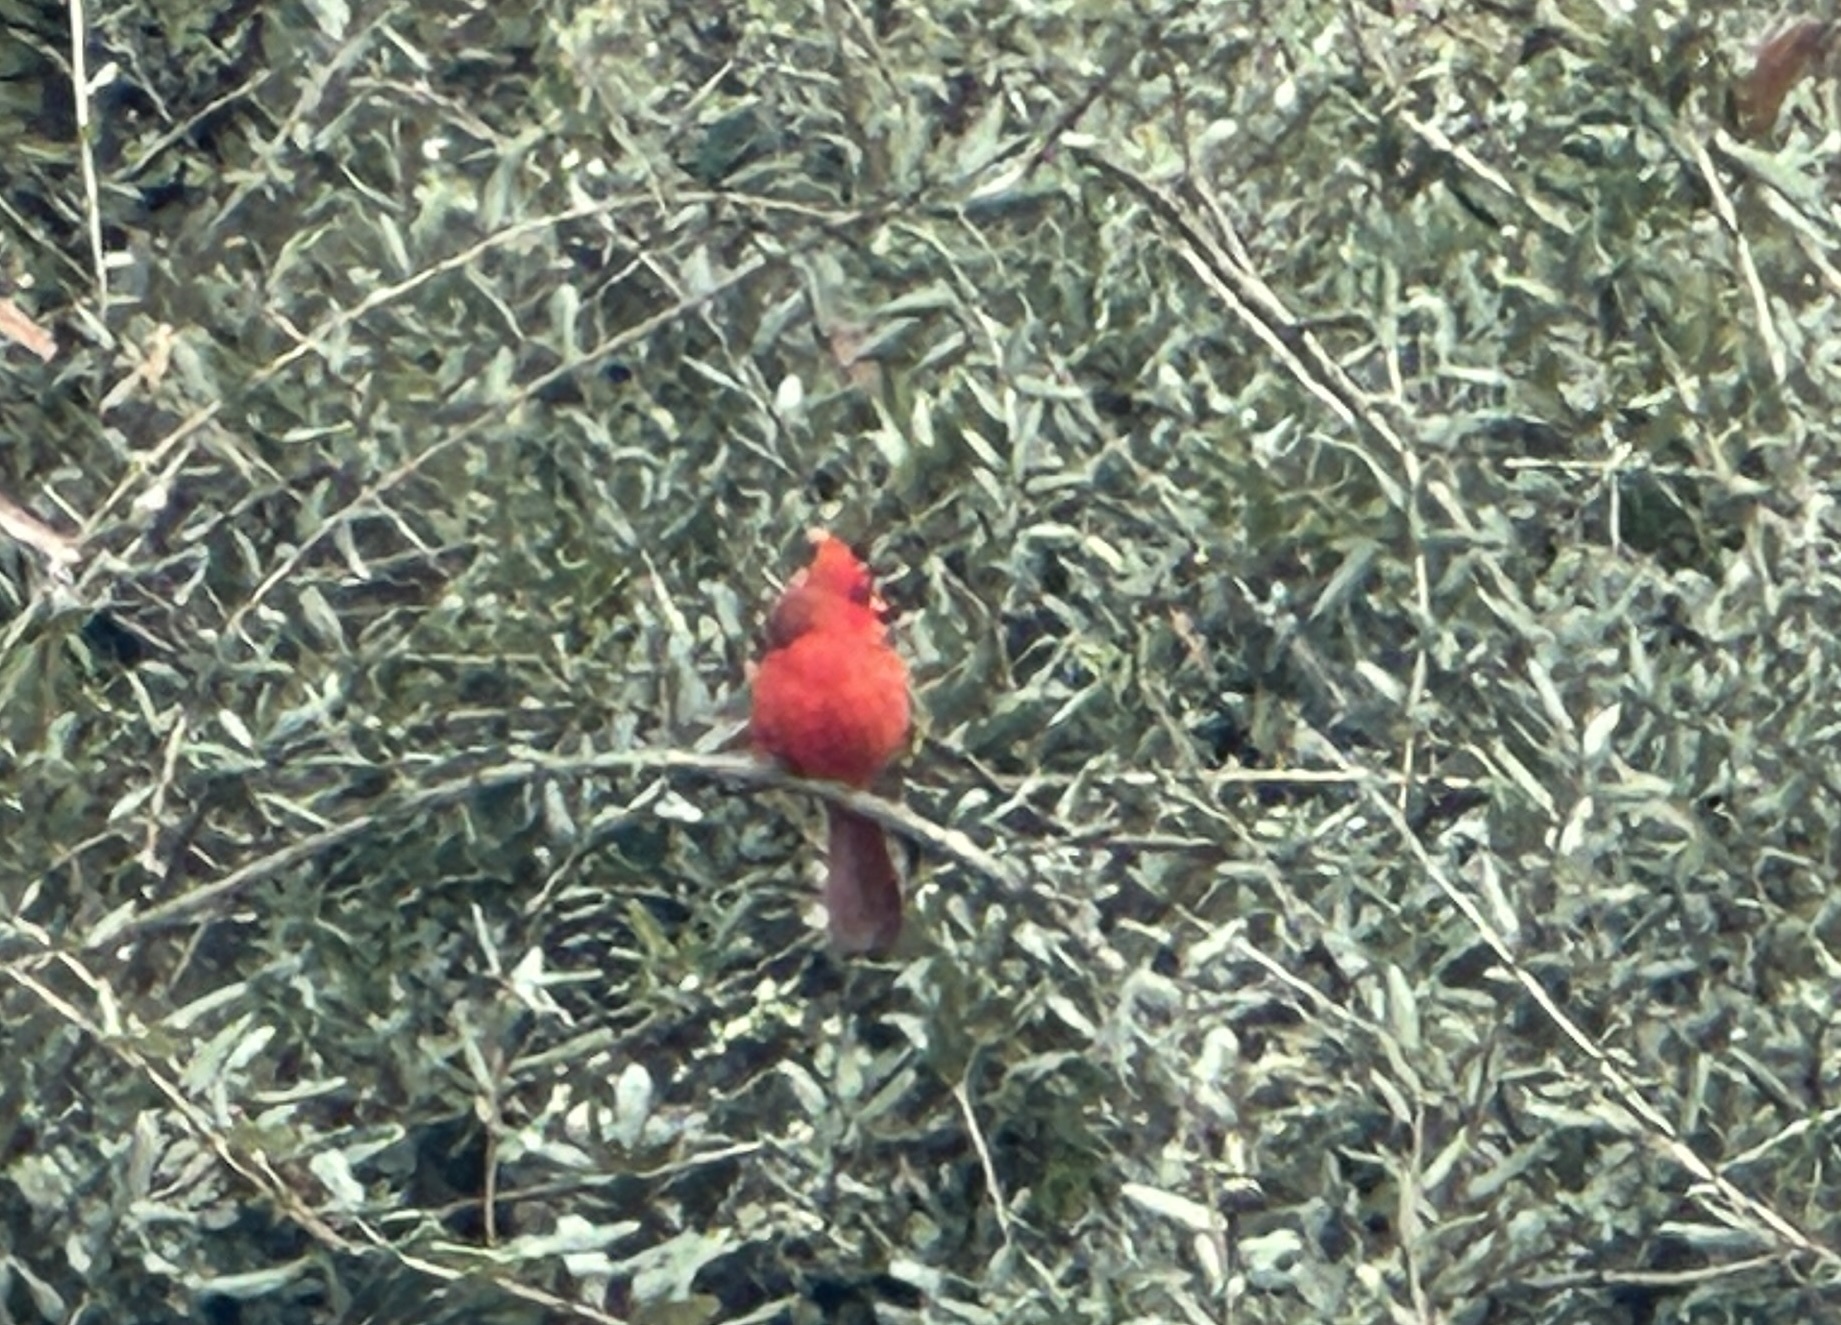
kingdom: Animalia
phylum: Chordata
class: Aves
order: Passeriformes
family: Cardinalidae
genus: Cardinalis
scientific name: Cardinalis cardinalis
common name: Northern cardinal
